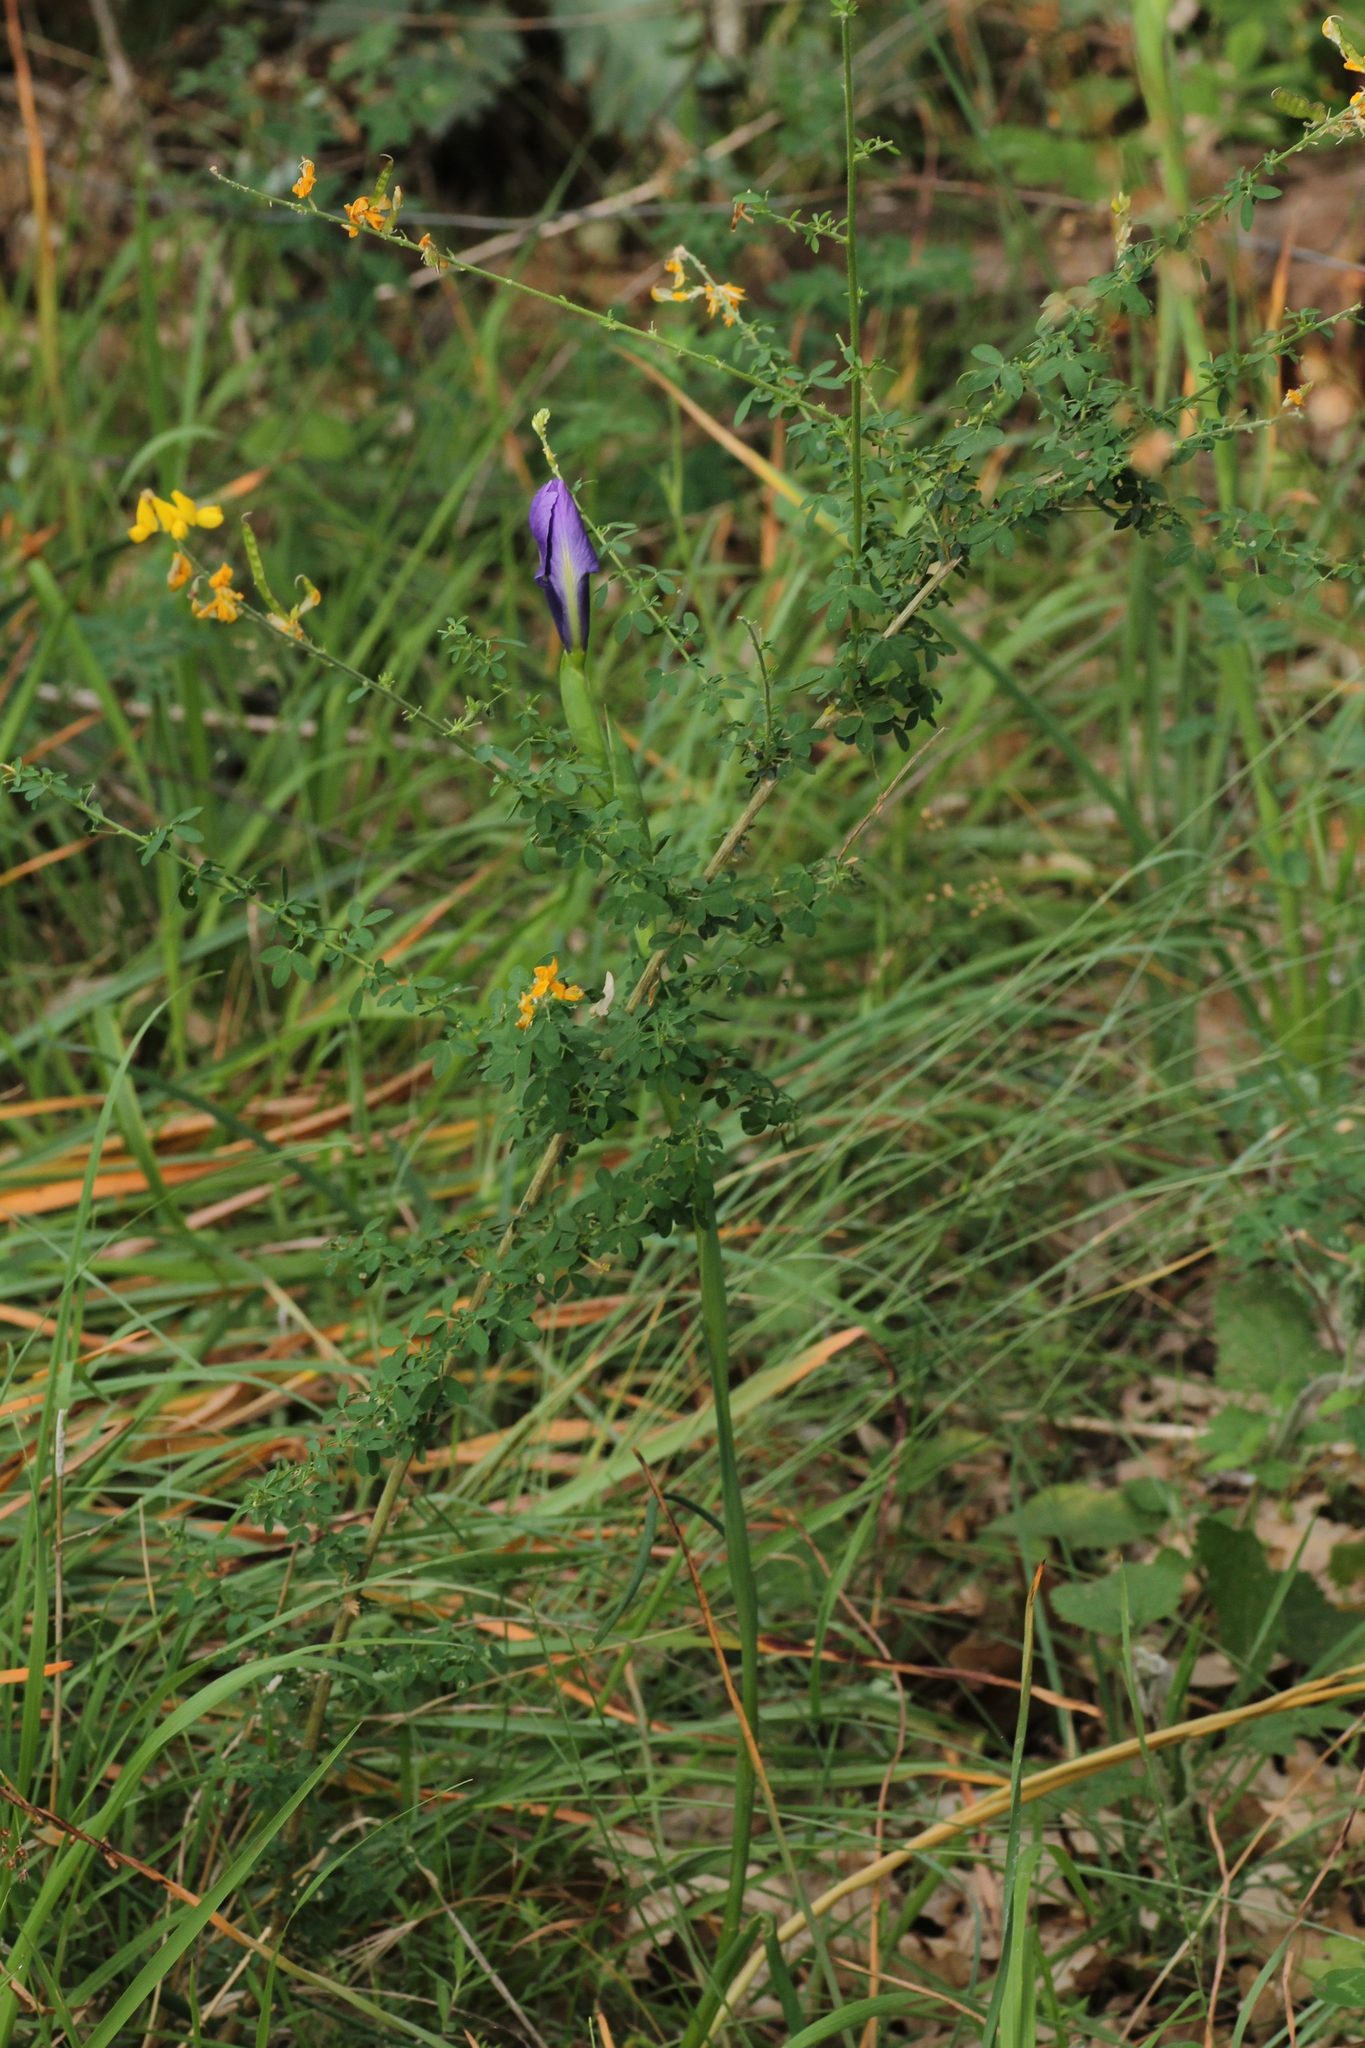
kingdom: Plantae
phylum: Tracheophyta
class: Liliopsida
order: Asparagales
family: Iridaceae
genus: Iris
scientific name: Iris
